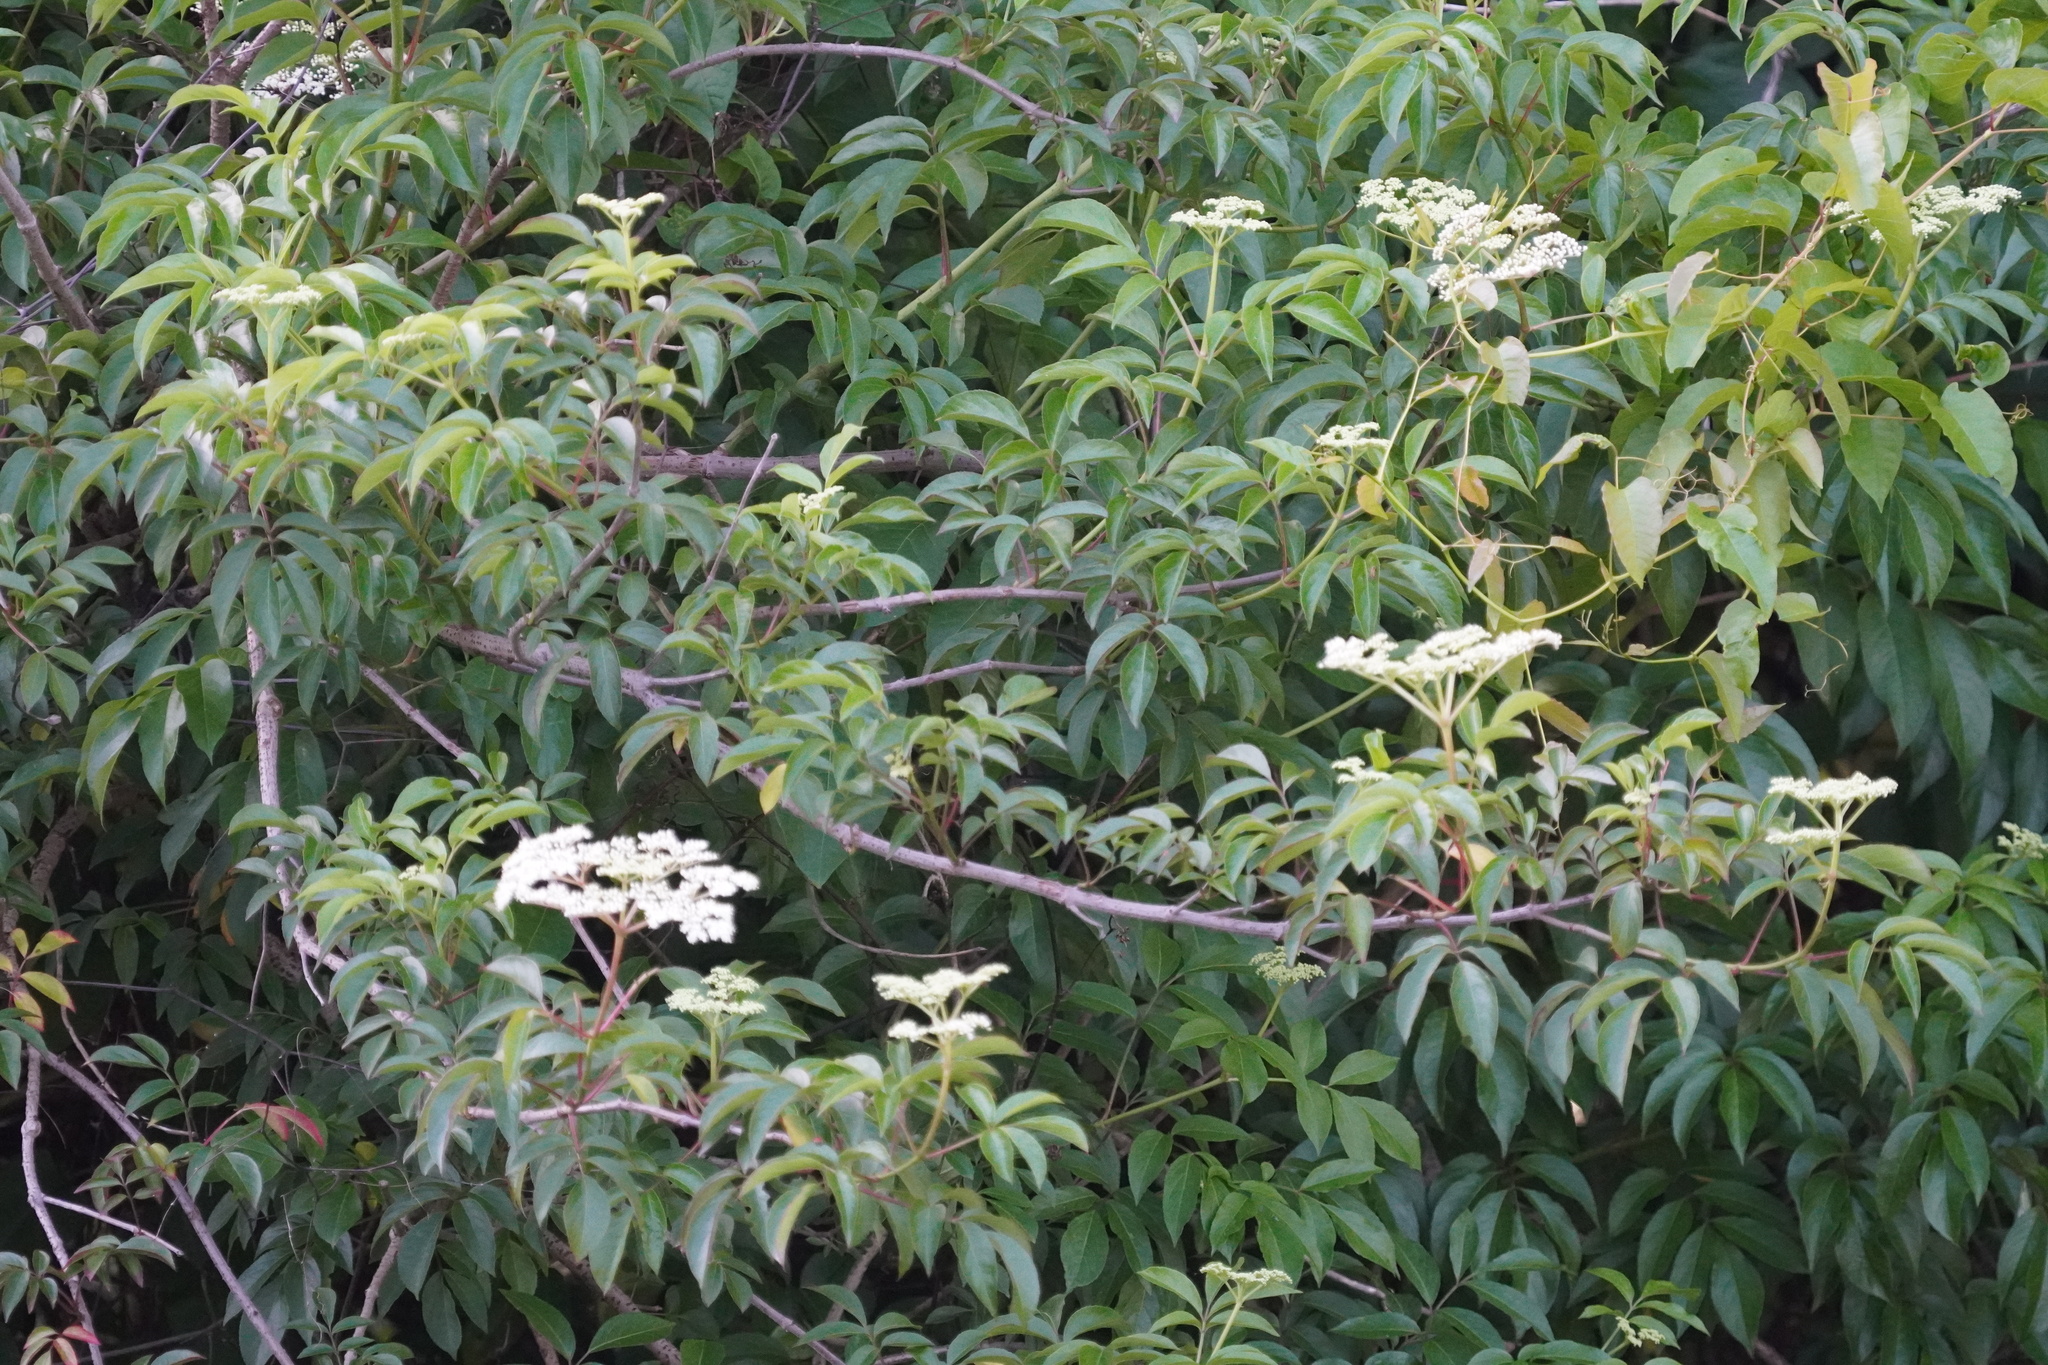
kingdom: Plantae
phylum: Tracheophyta
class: Magnoliopsida
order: Dipsacales
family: Viburnaceae
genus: Sambucus
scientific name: Sambucus canadensis
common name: American elder
